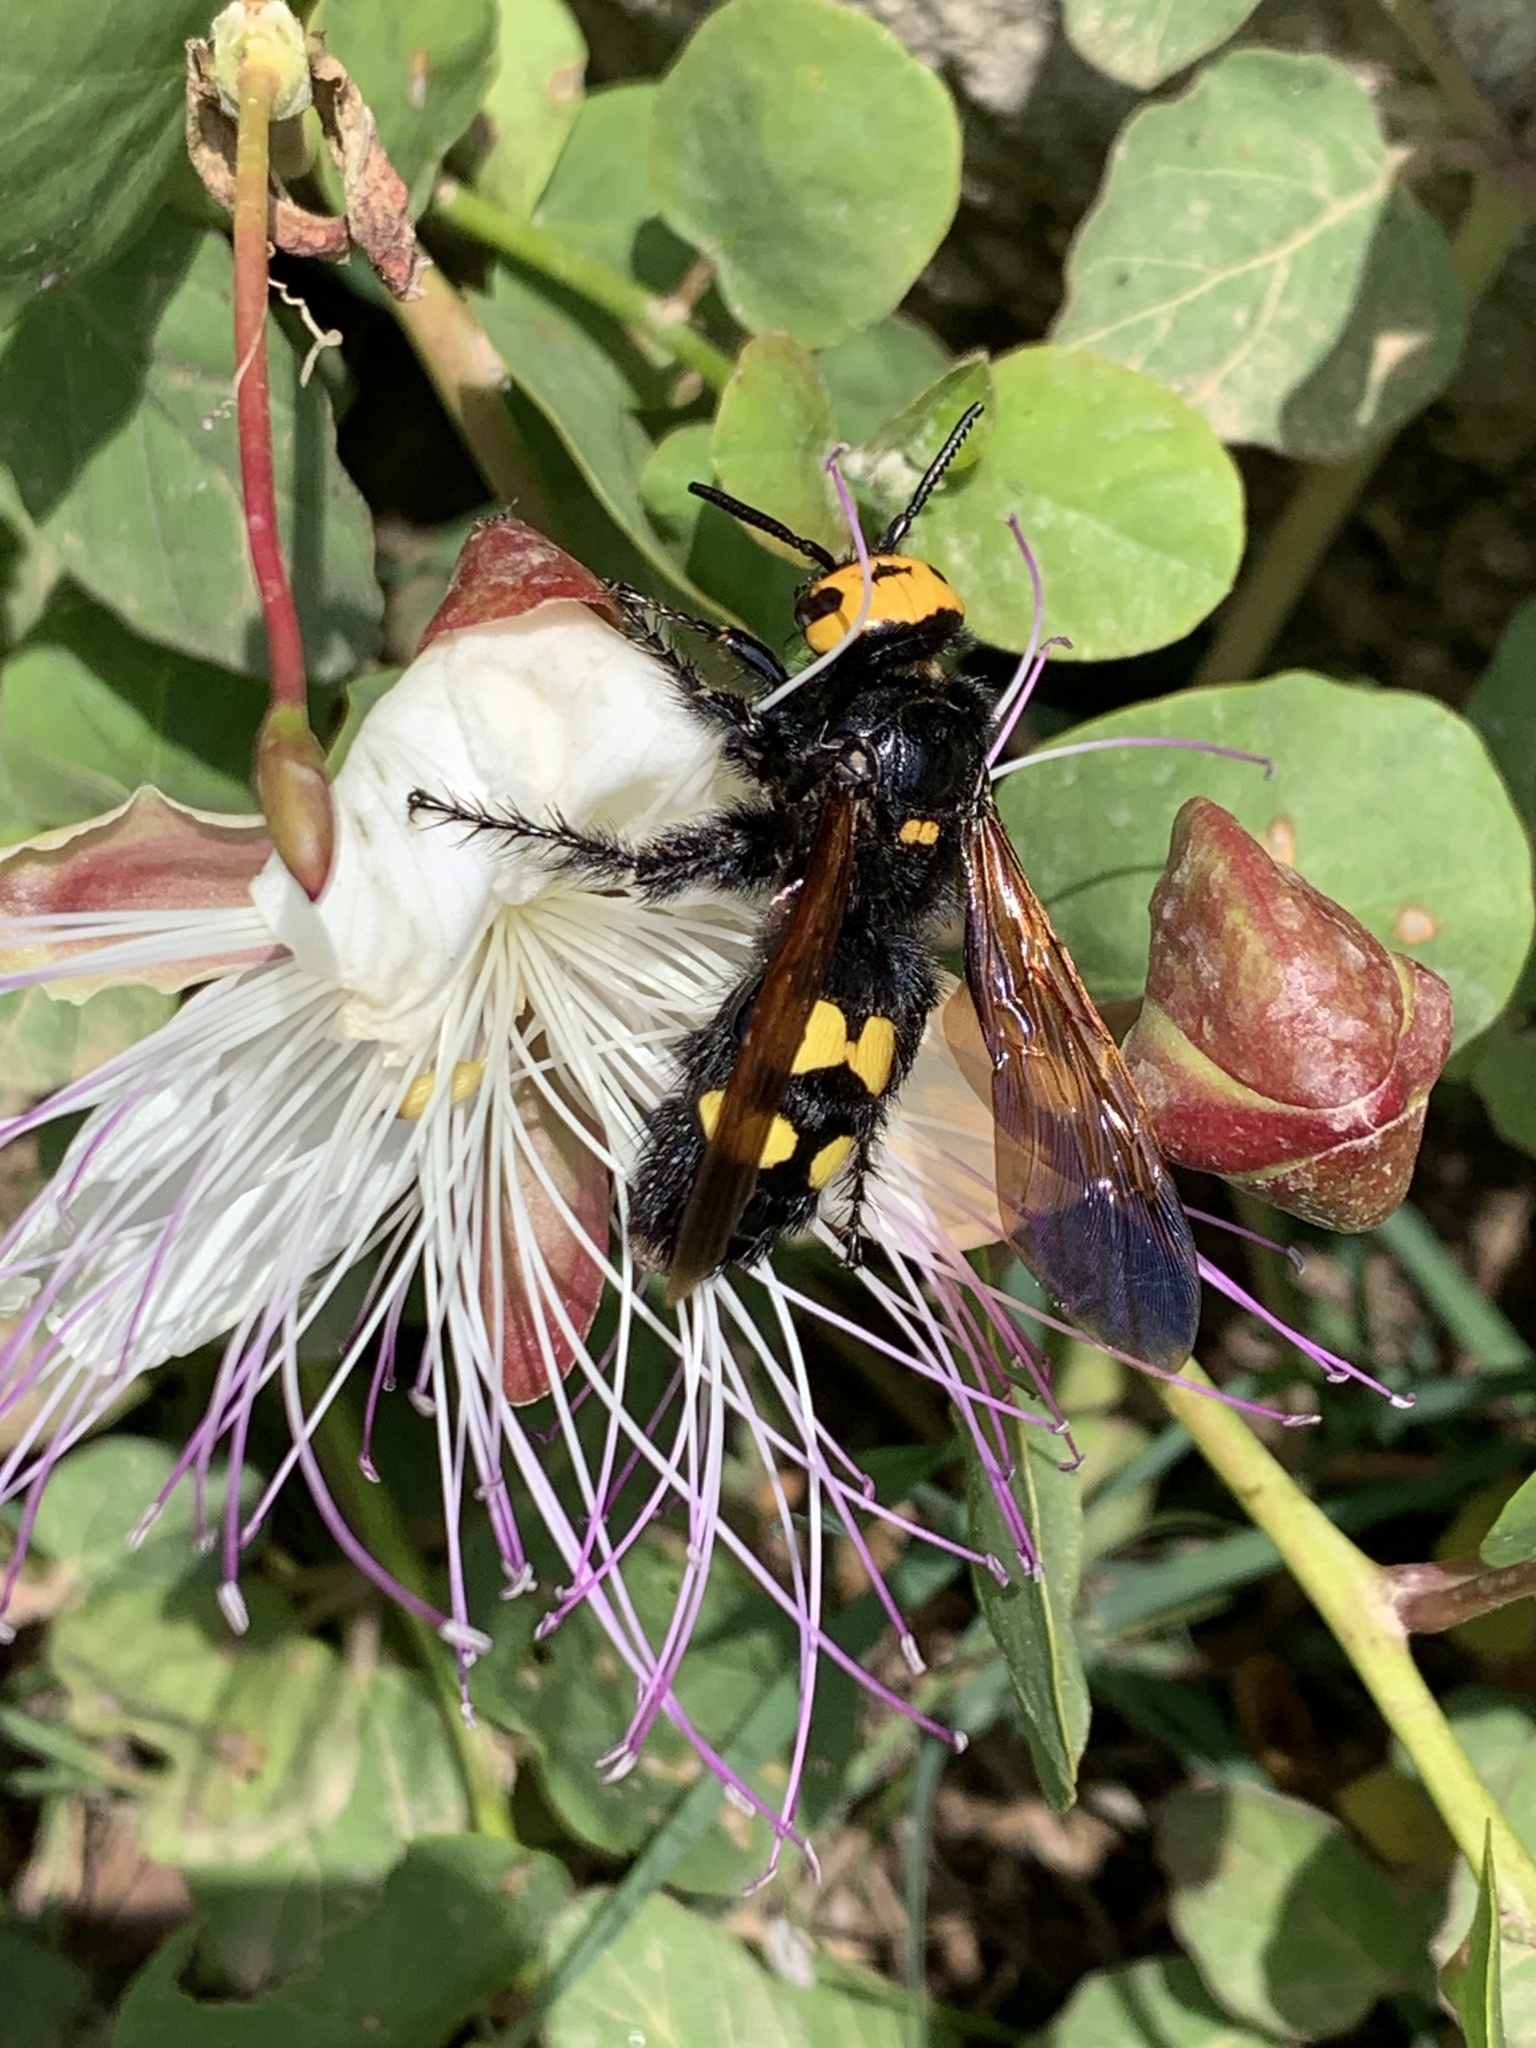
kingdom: Animalia
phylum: Arthropoda
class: Insecta
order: Hymenoptera
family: Scoliidae
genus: Megascolia
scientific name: Megascolia maculata
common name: Mammoth wasp
